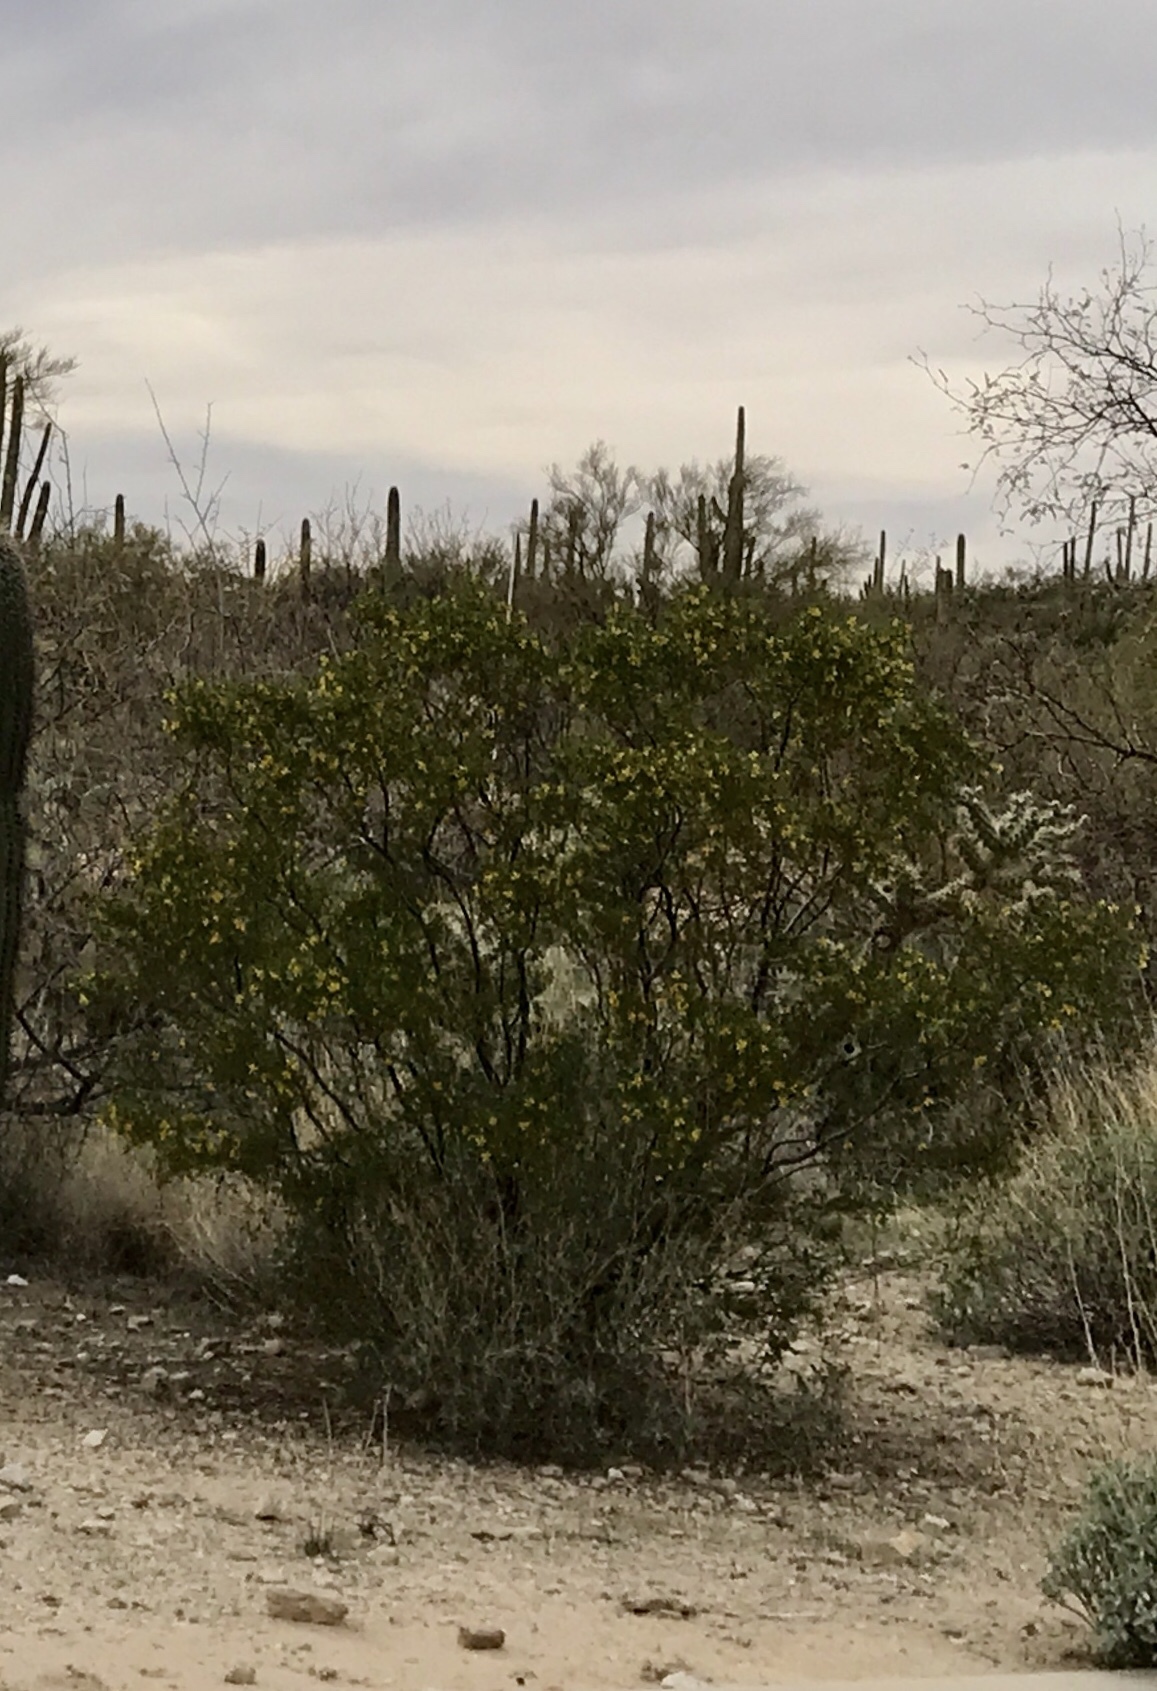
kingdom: Plantae
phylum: Tracheophyta
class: Magnoliopsida
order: Zygophyllales
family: Zygophyllaceae
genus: Larrea
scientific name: Larrea tridentata
